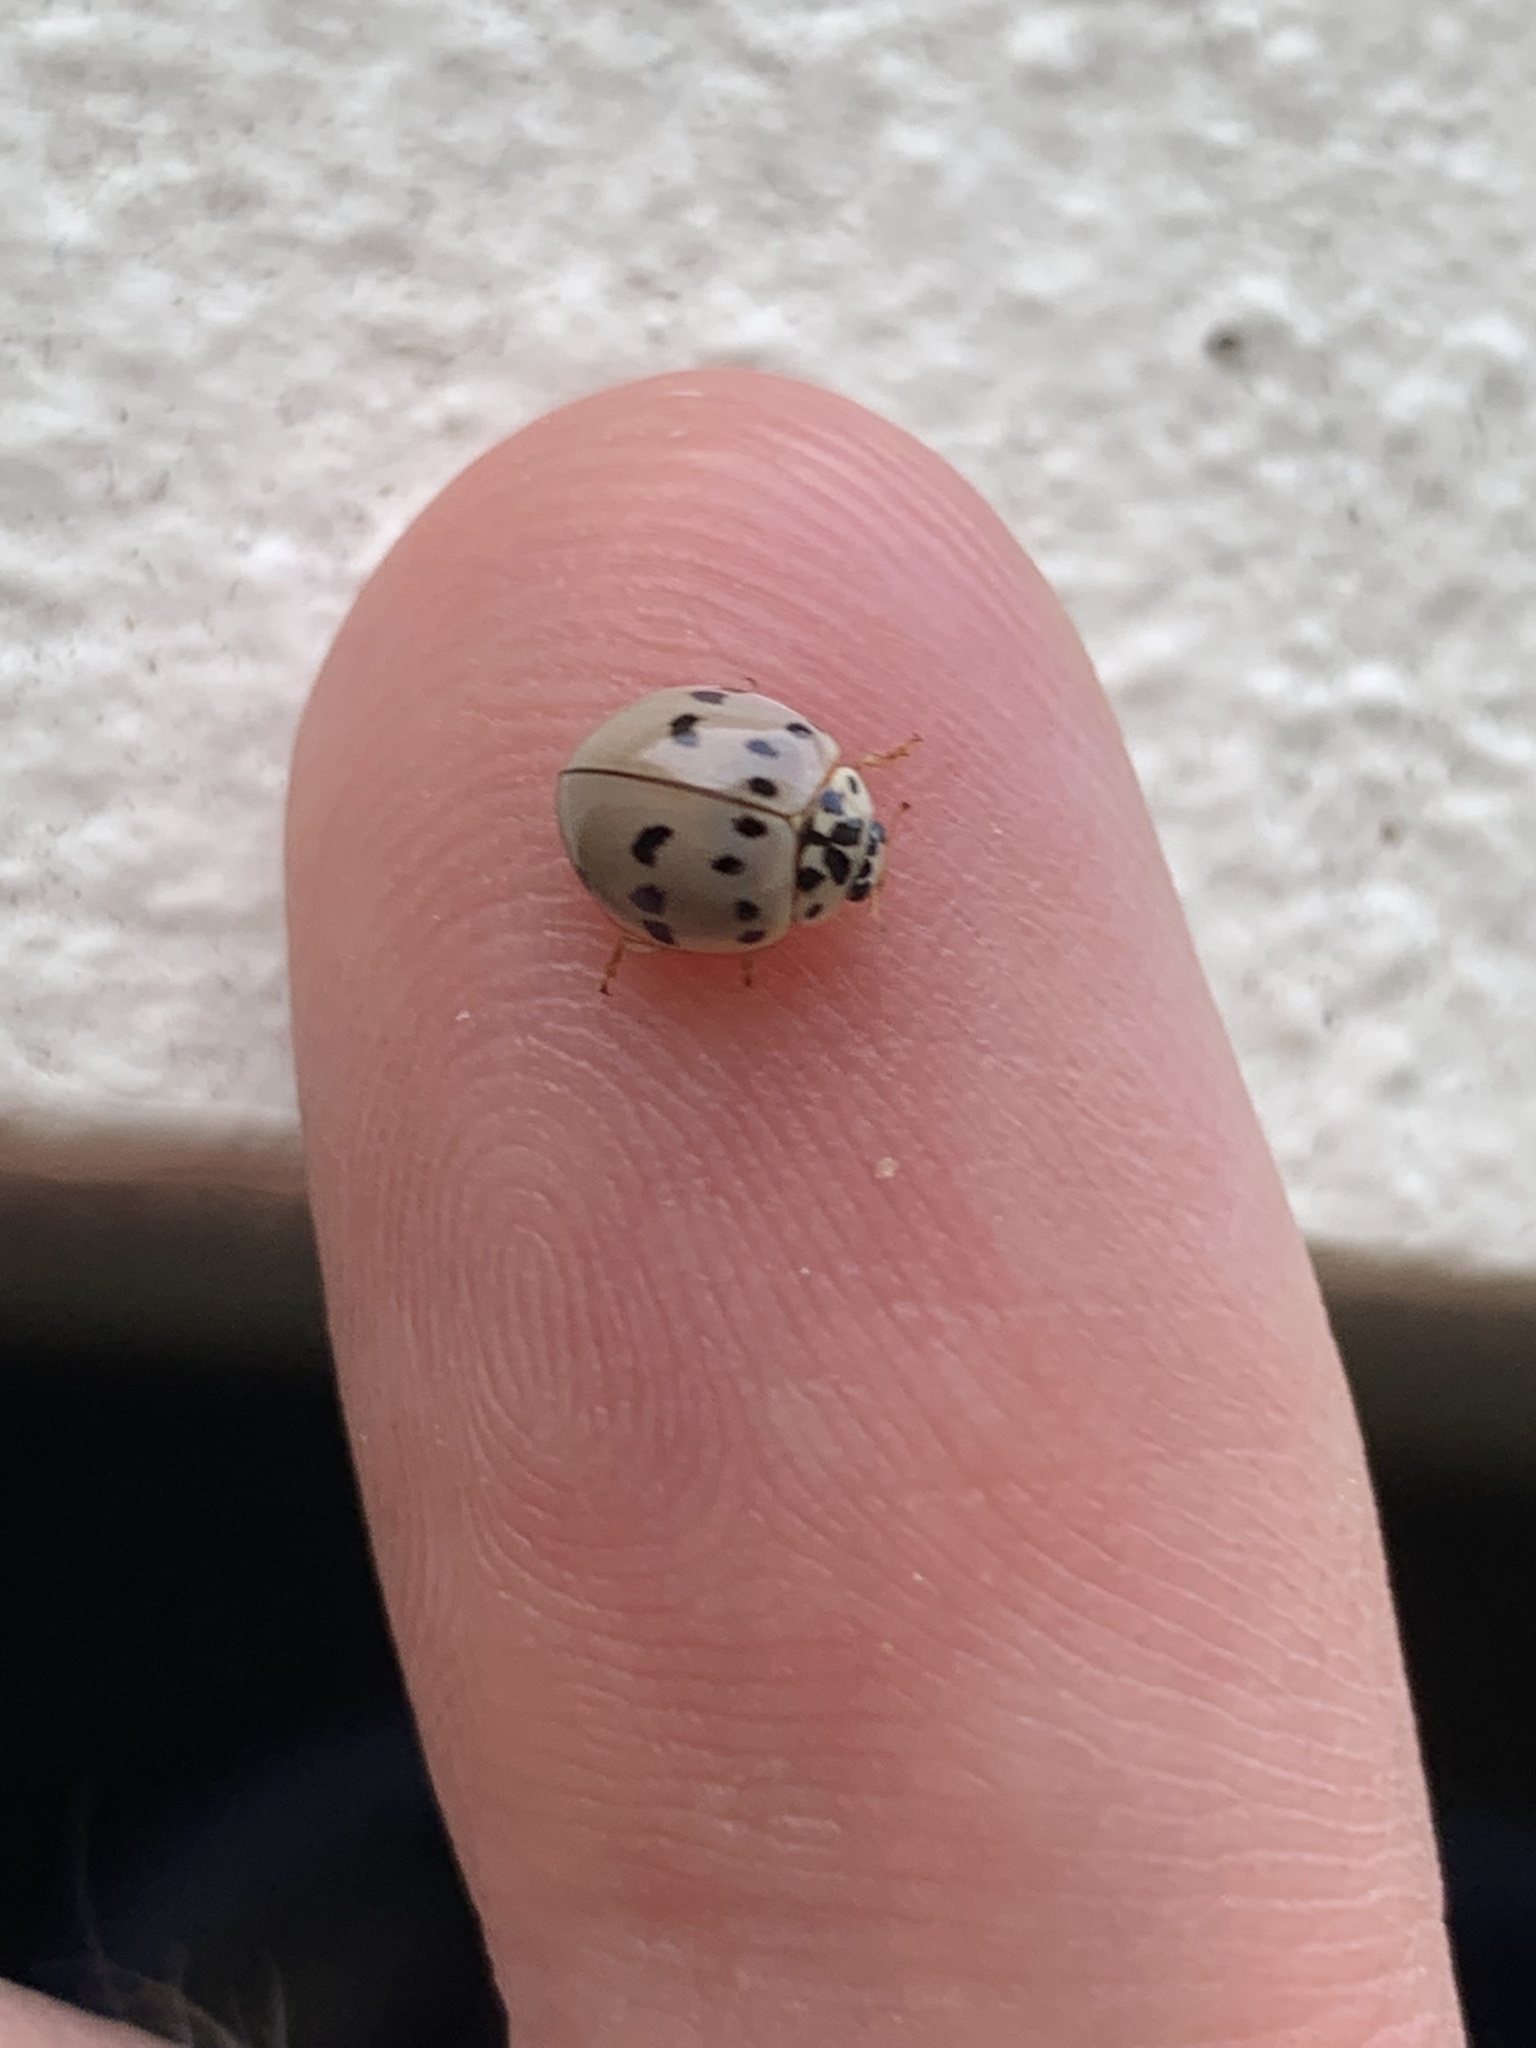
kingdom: Animalia
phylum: Arthropoda
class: Insecta
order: Coleoptera
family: Coccinellidae
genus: Olla
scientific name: Olla v-nigrum
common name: Ashy gray lady beetle
